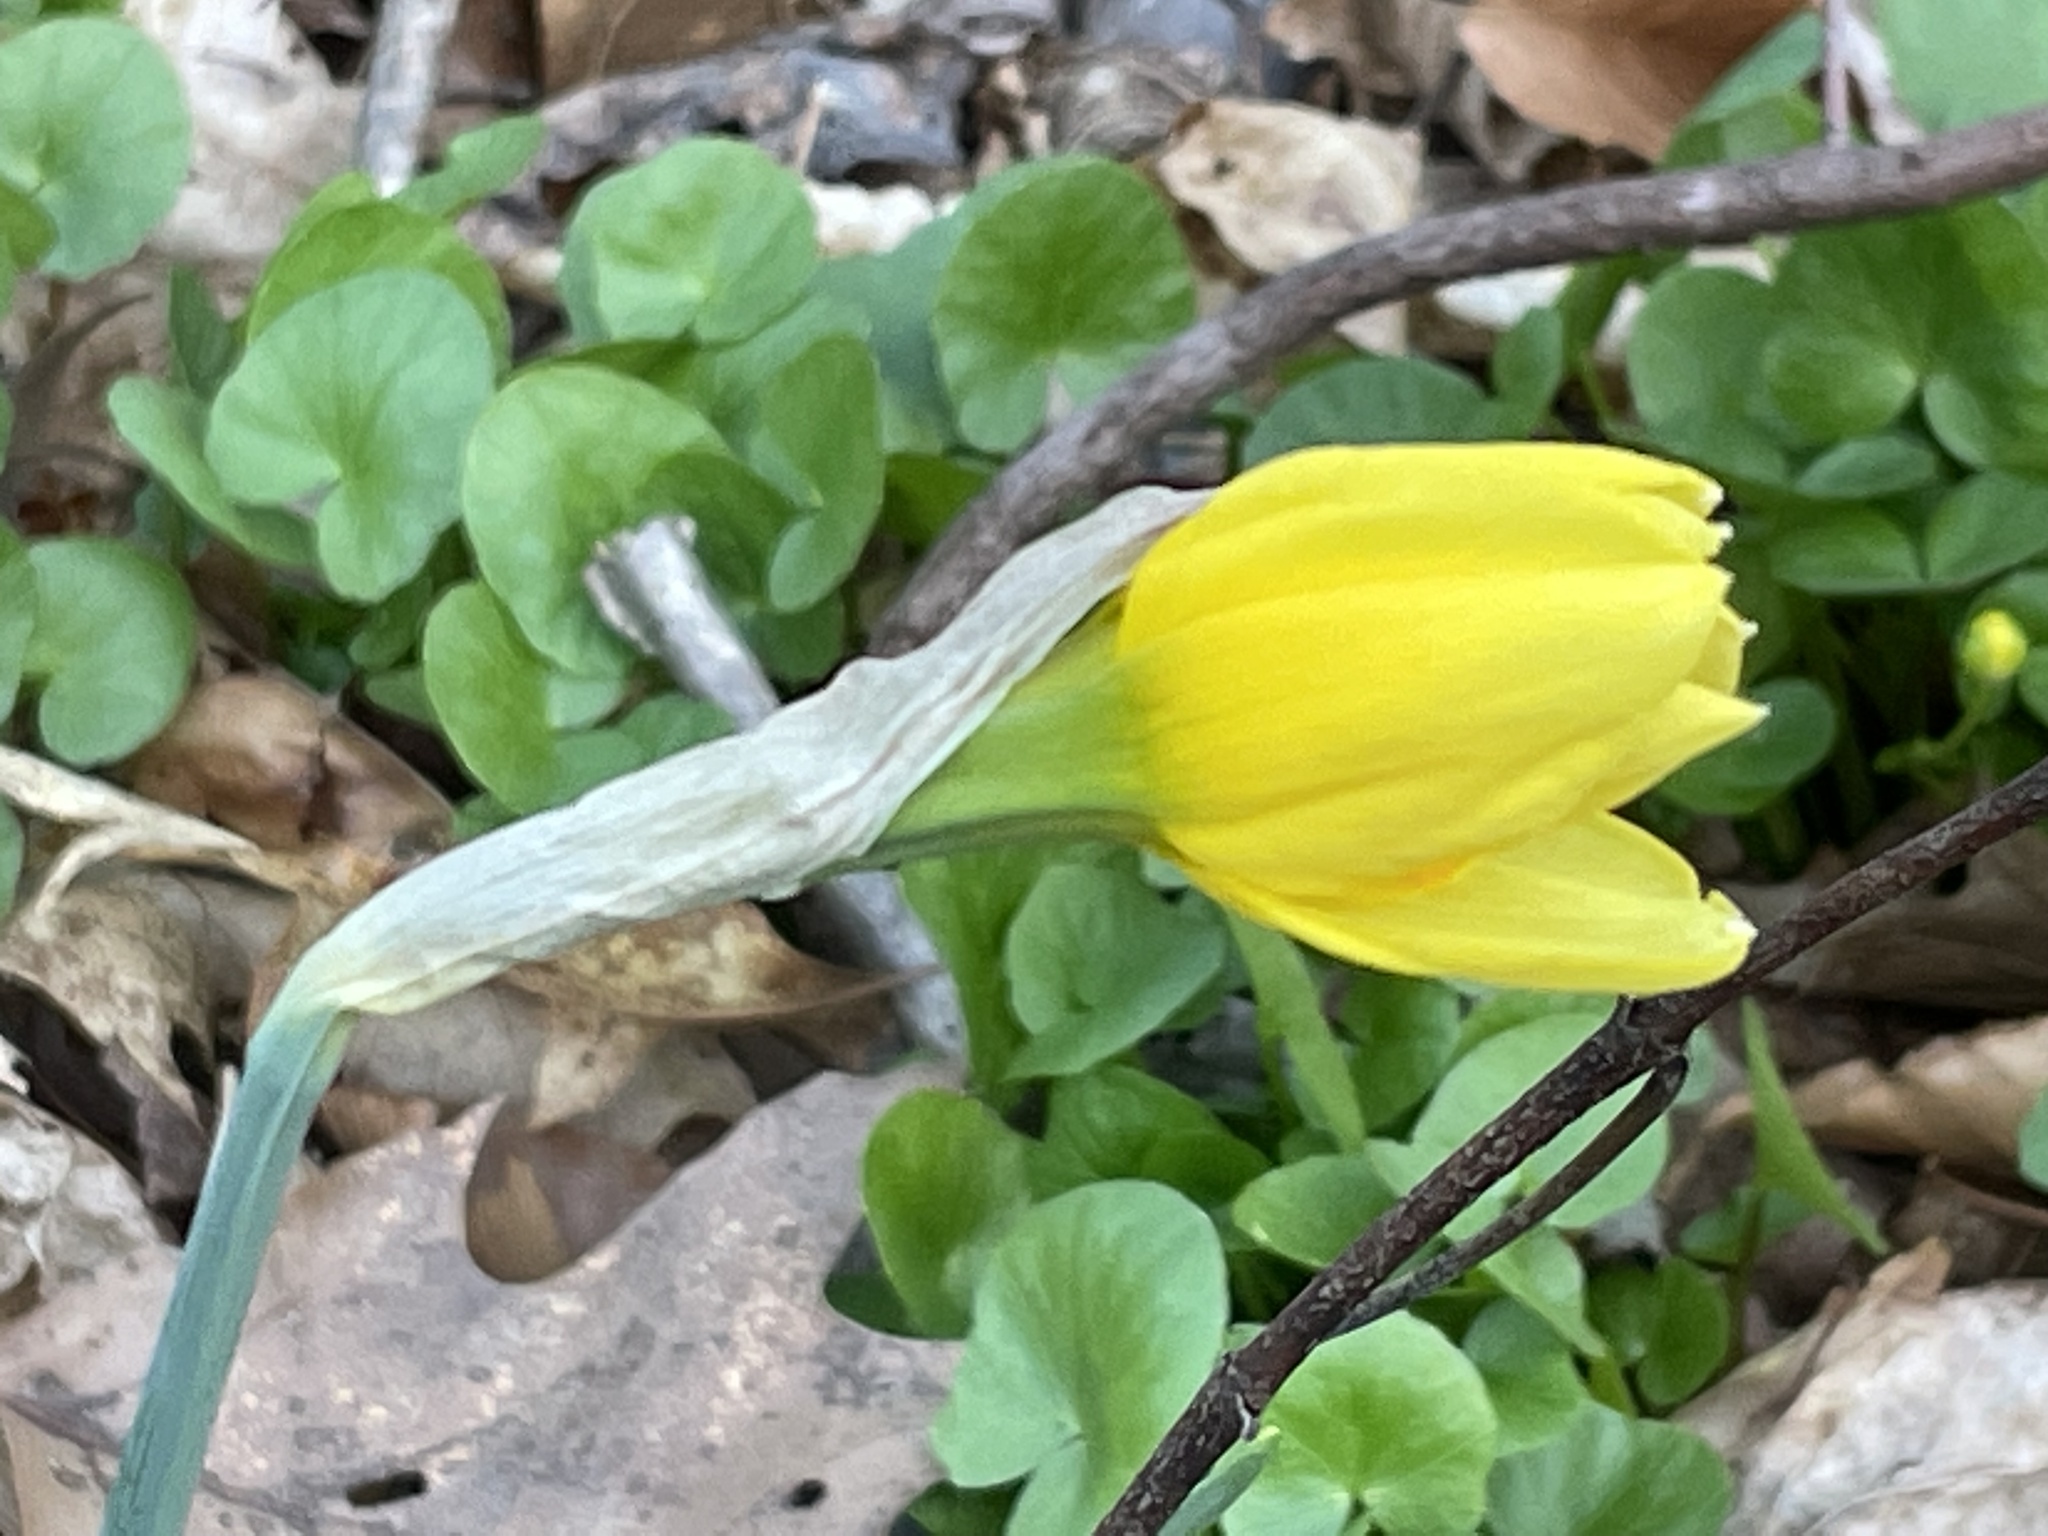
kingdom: Plantae
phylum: Tracheophyta
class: Liliopsida
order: Asparagales
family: Amaryllidaceae
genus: Narcissus
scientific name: Narcissus
